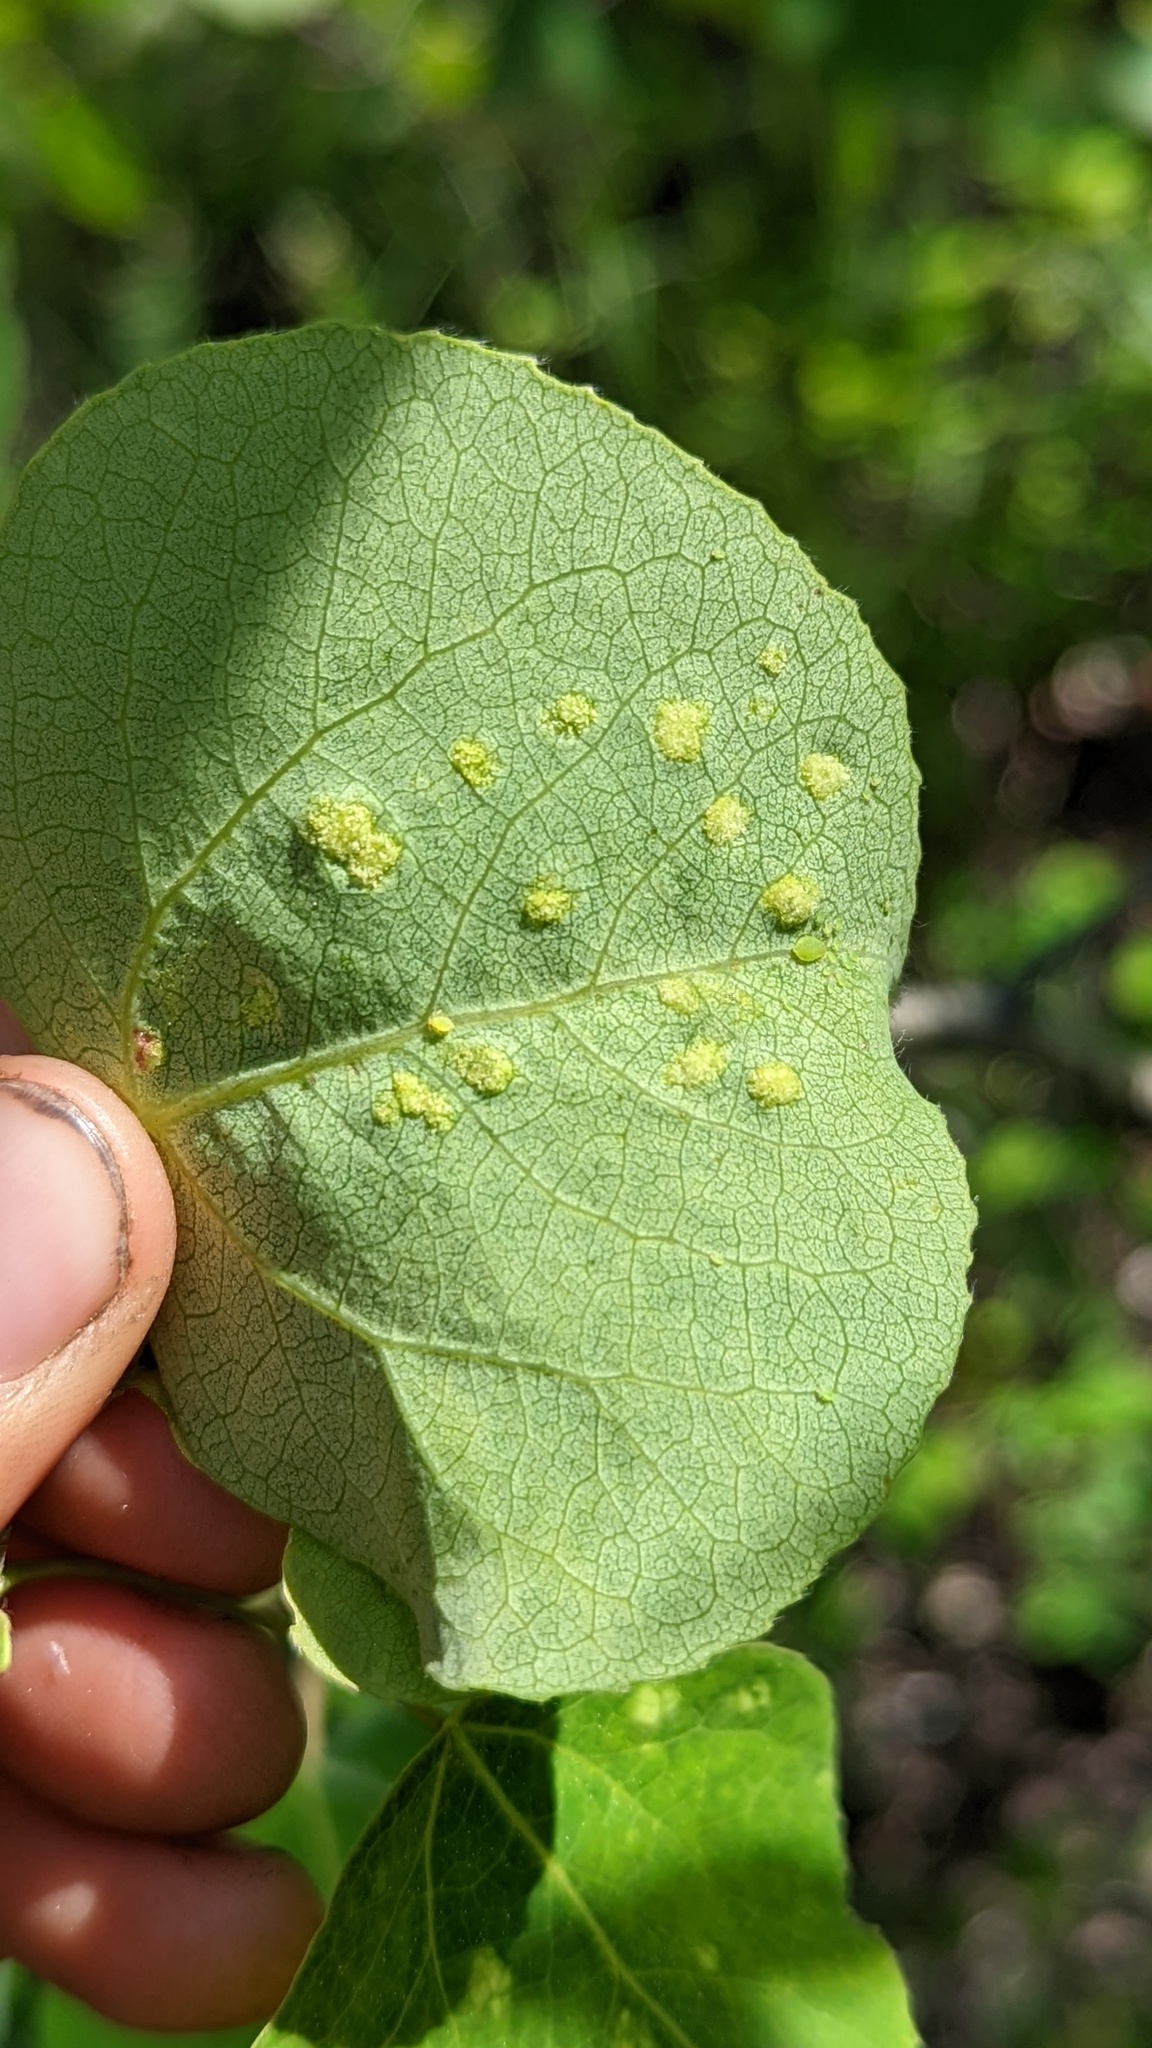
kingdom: Animalia
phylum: Arthropoda
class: Arachnida
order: Trombidiformes
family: Eriophyidae
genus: Phyllocoptes
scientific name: Phyllocoptes
